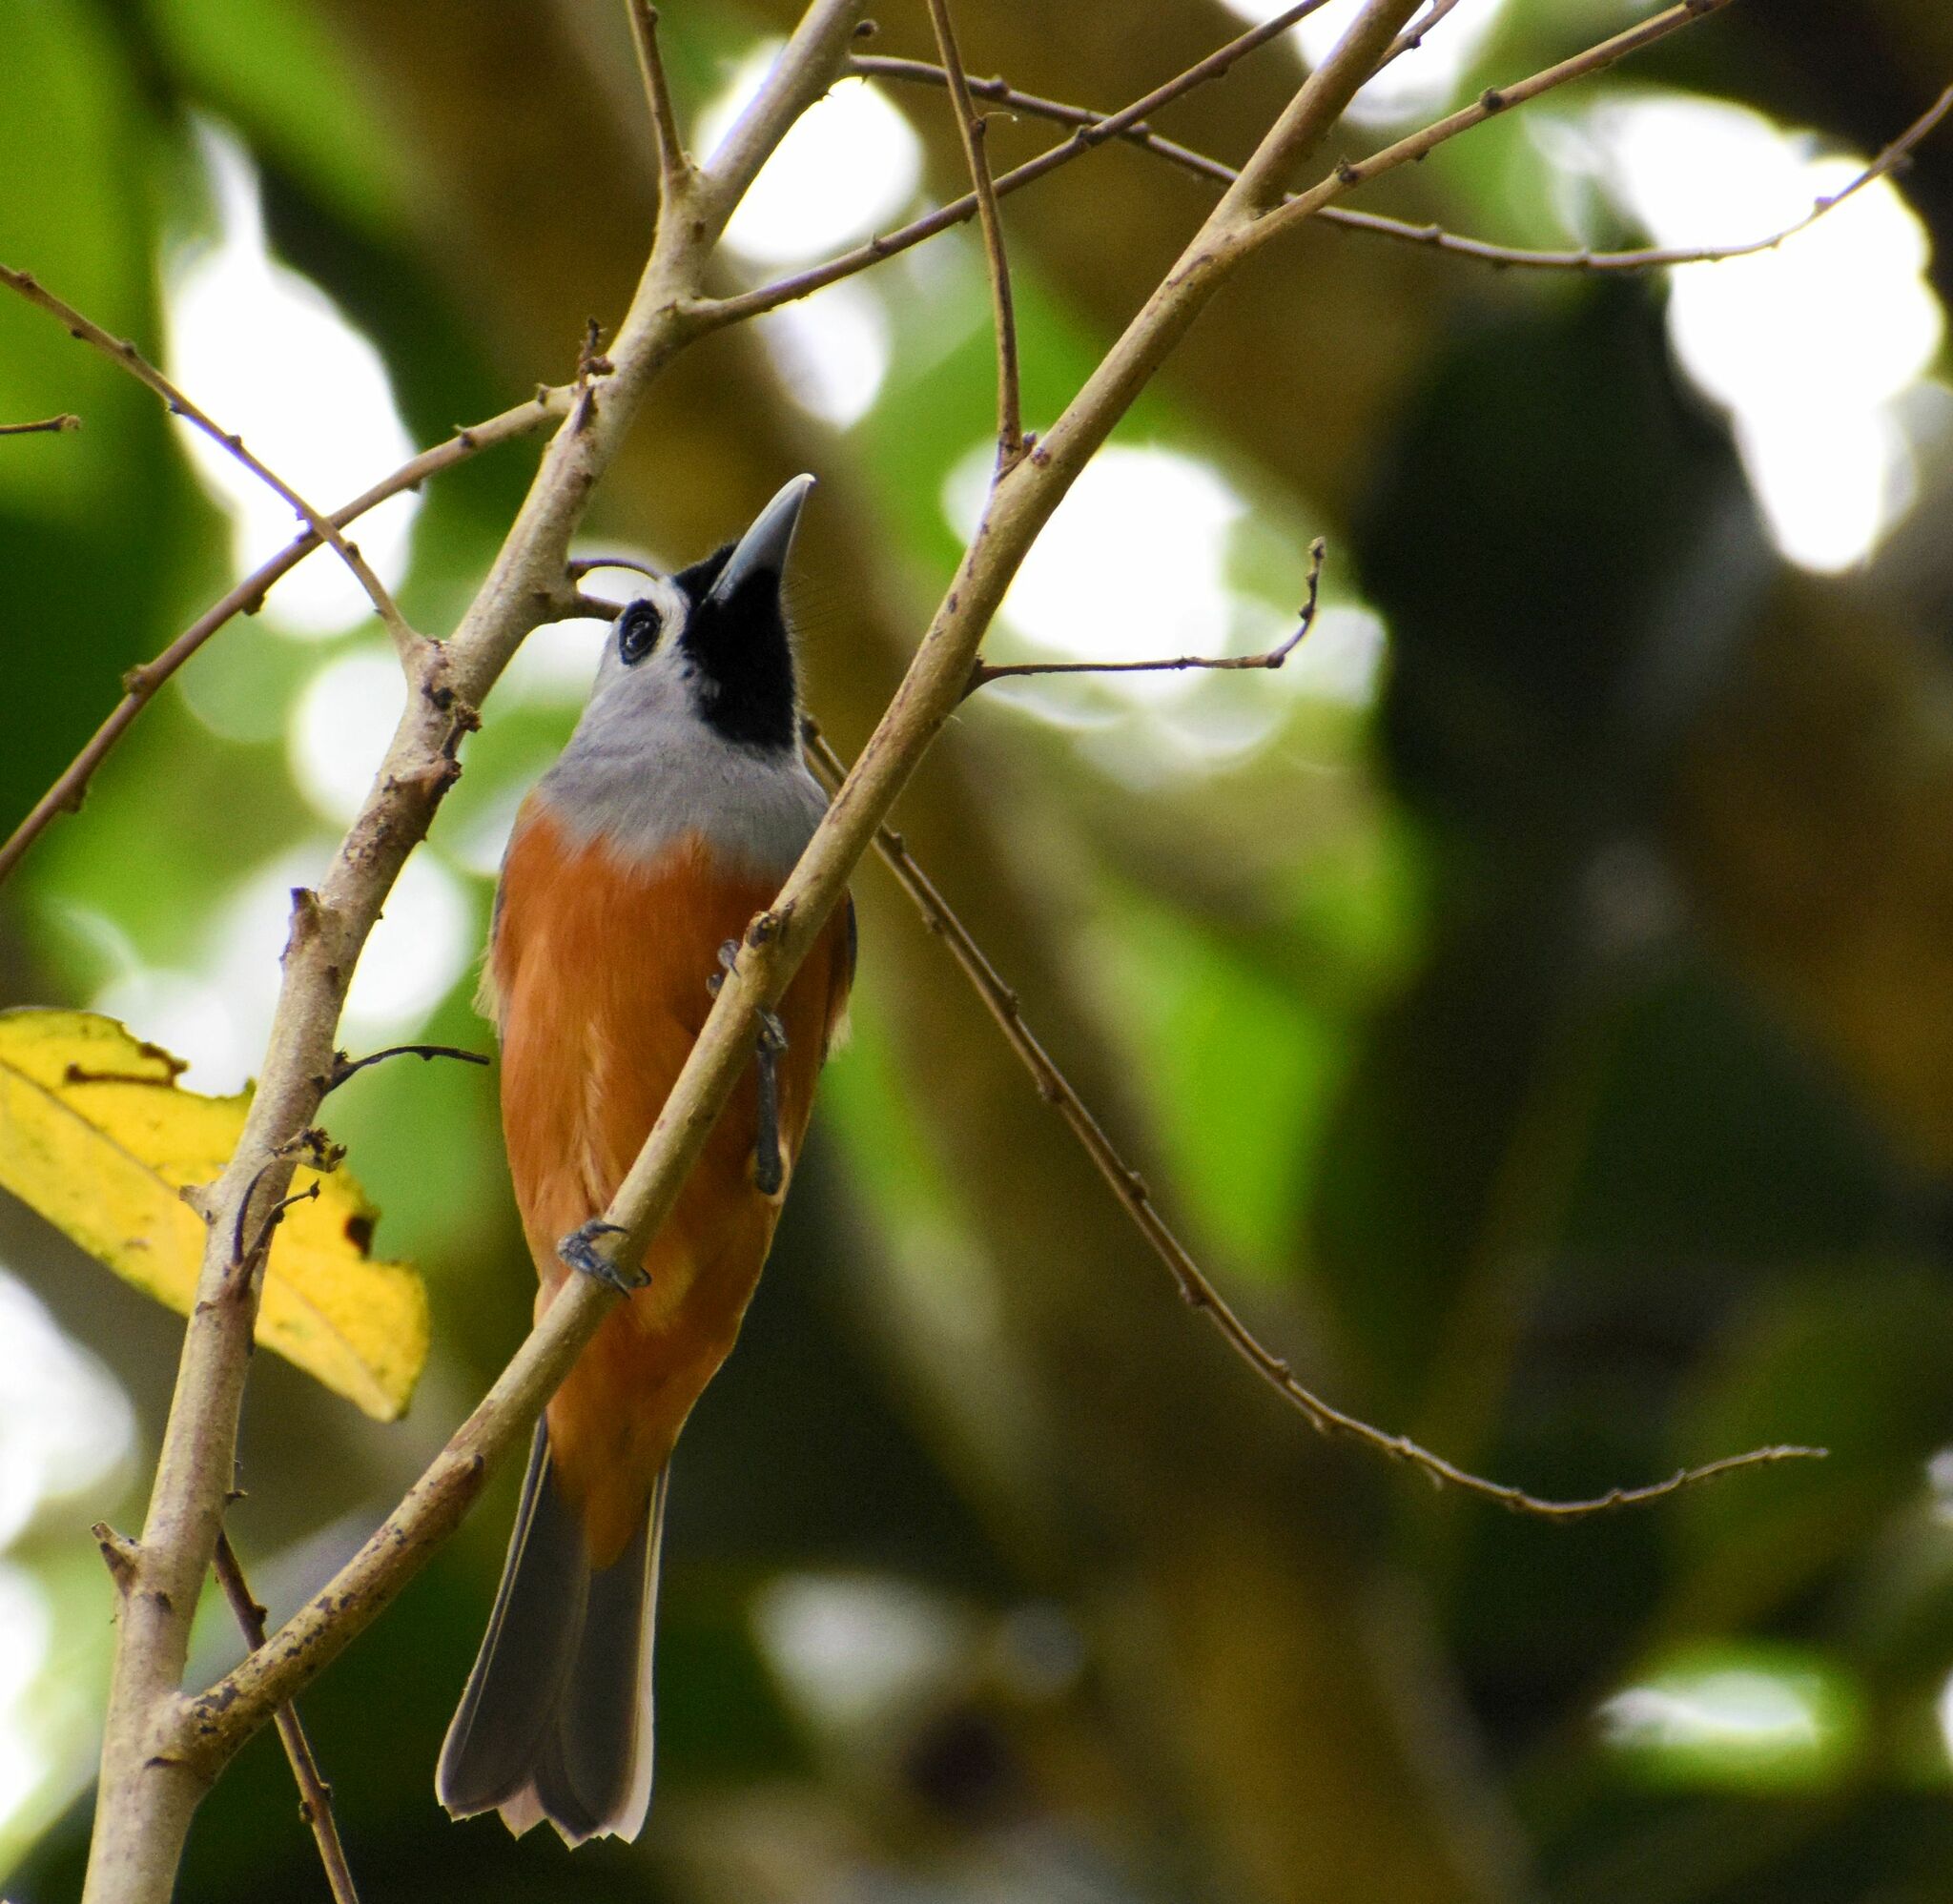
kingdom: Animalia
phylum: Chordata
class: Aves
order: Passeriformes
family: Monarchidae
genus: Monarcha
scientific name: Monarcha melanopsis
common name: Black-faced monarch
